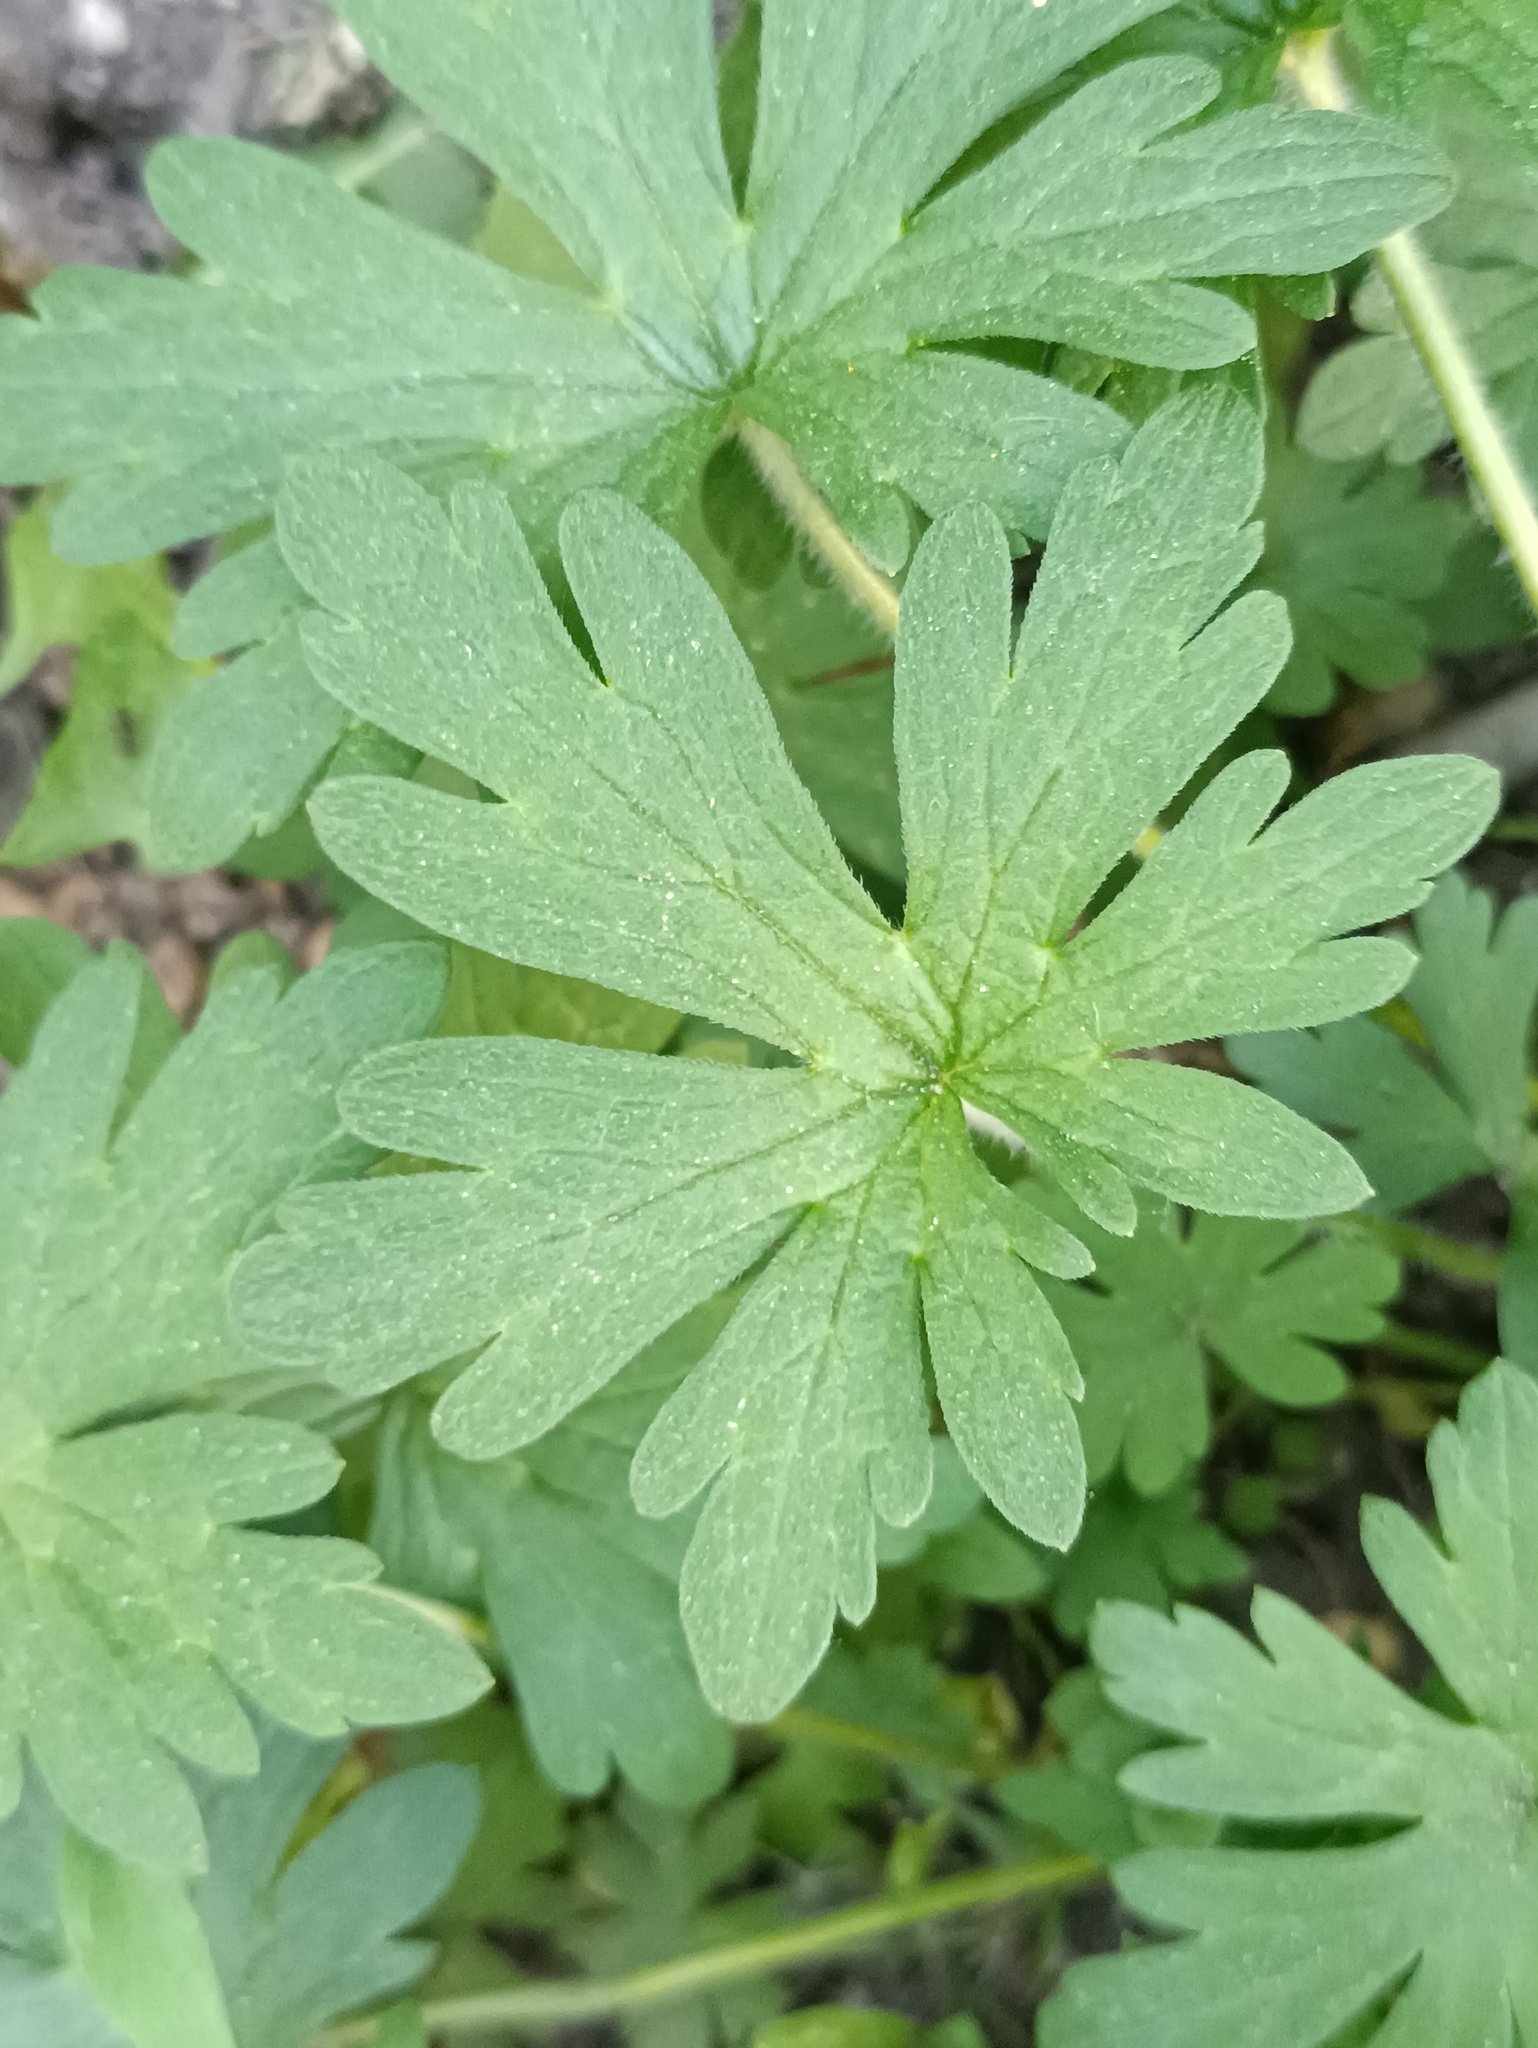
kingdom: Plantae
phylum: Tracheophyta
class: Magnoliopsida
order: Geraniales
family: Geraniaceae
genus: Geranium
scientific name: Geranium sibiricum
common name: Siberian crane's-bill
